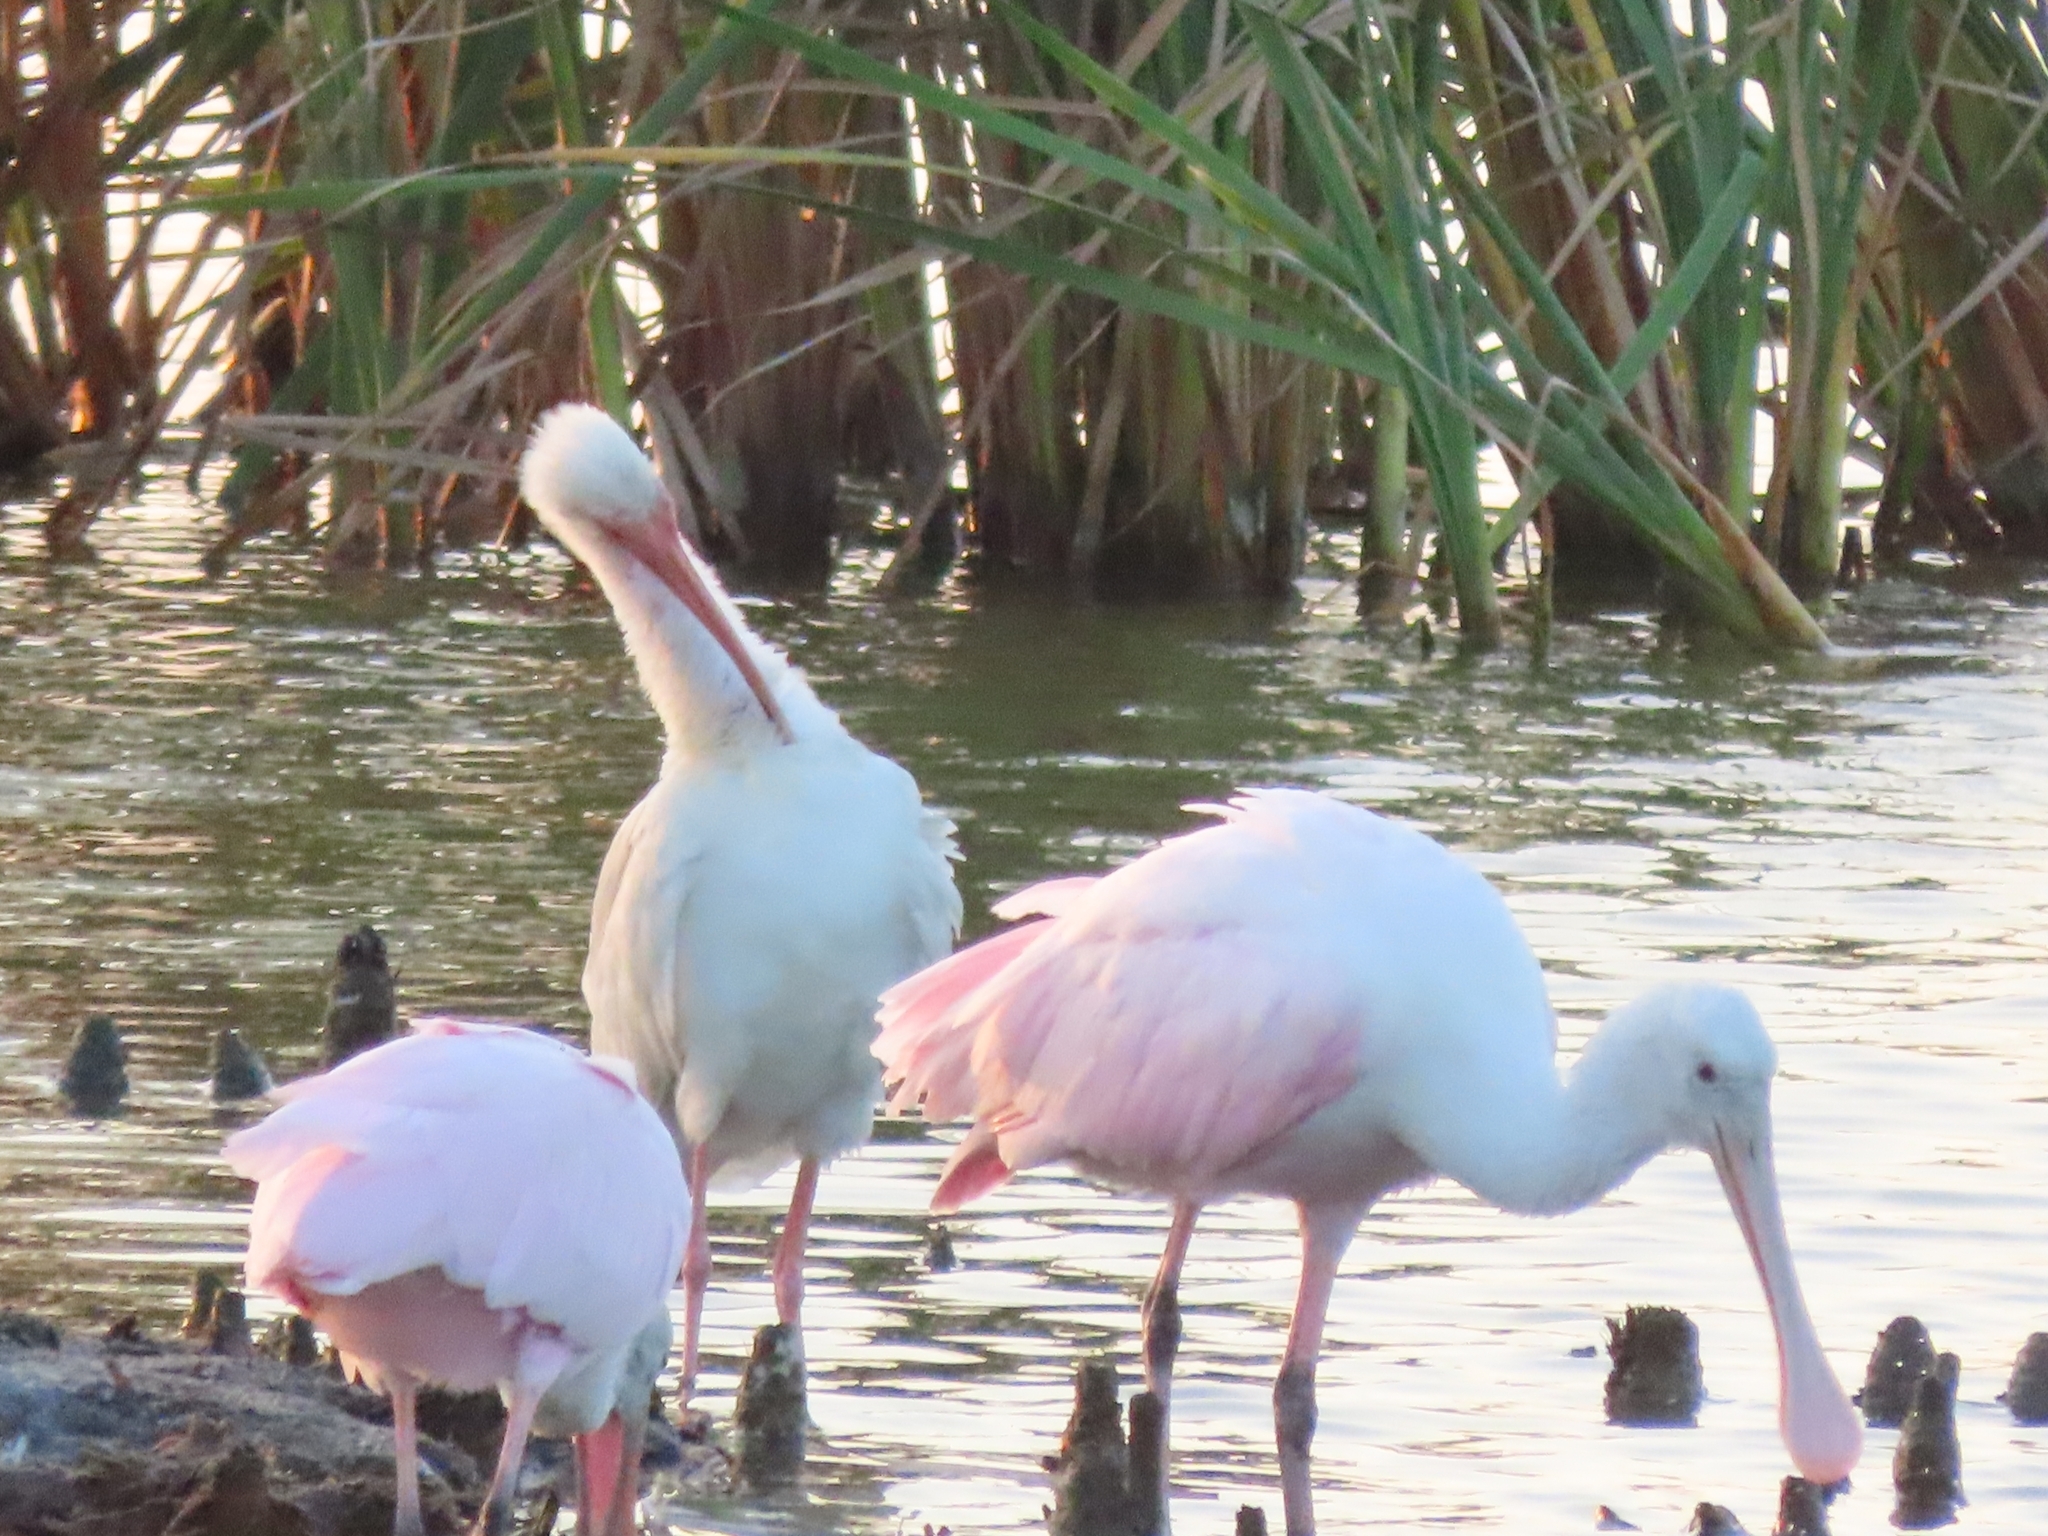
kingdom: Animalia
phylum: Chordata
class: Aves
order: Pelecaniformes
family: Threskiornithidae
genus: Platalea
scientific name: Platalea ajaja
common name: Roseate spoonbill
